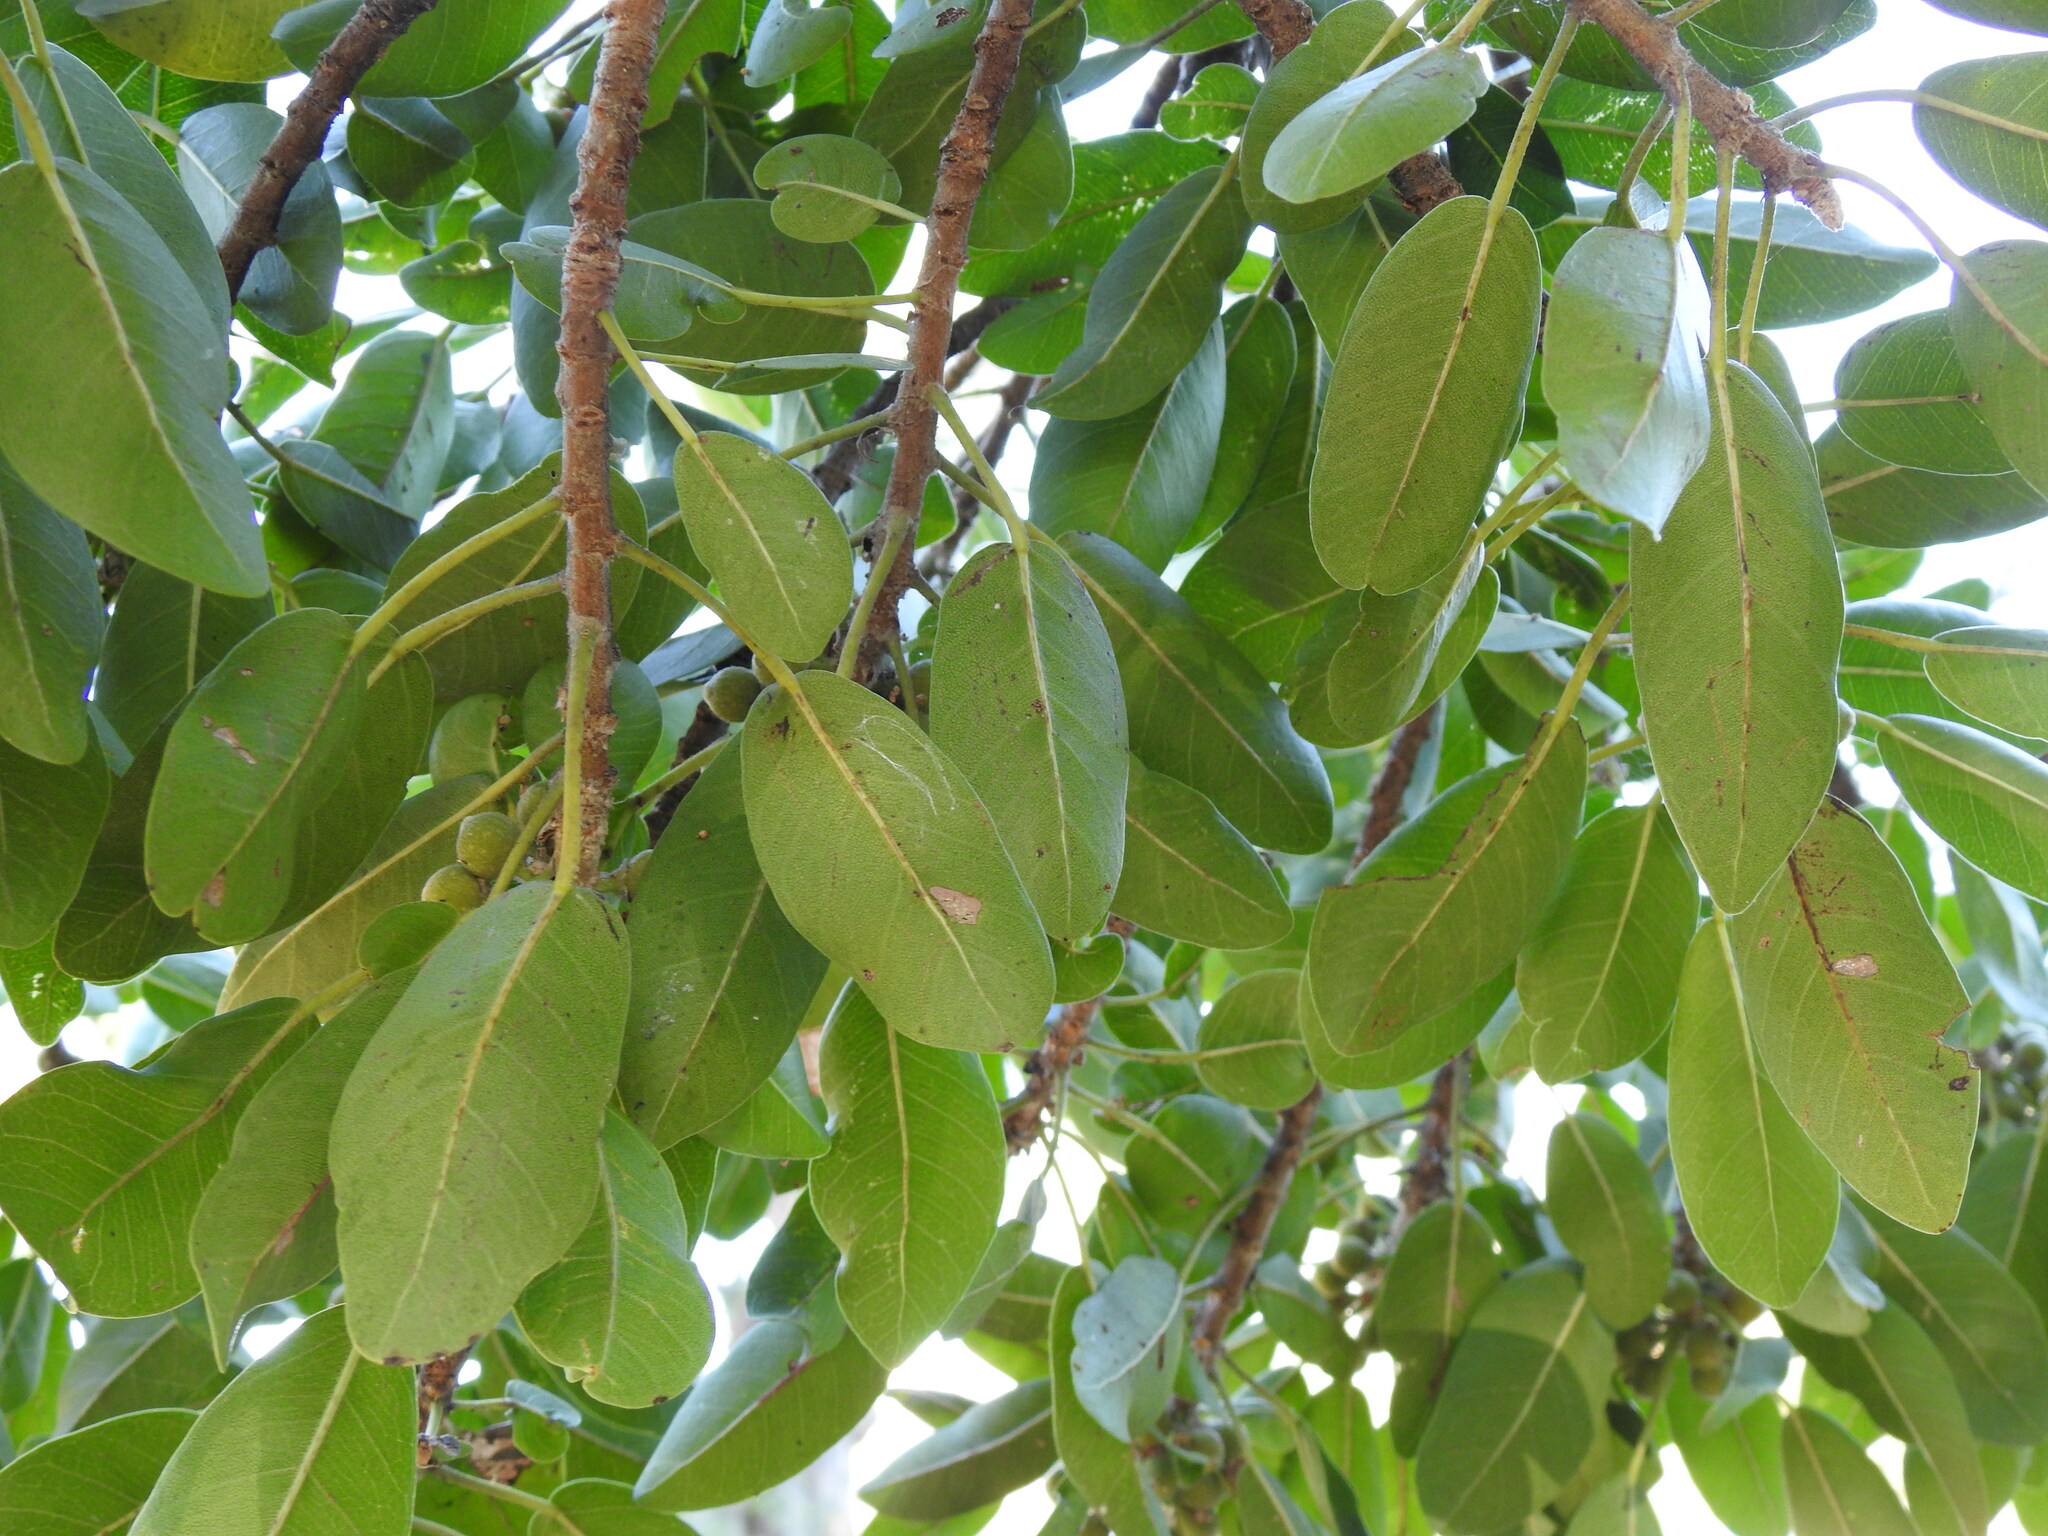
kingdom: Plantae
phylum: Tracheophyta
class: Magnoliopsida
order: Rosales
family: Moraceae
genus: Ficus
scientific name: Ficus thonningii
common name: Fig
